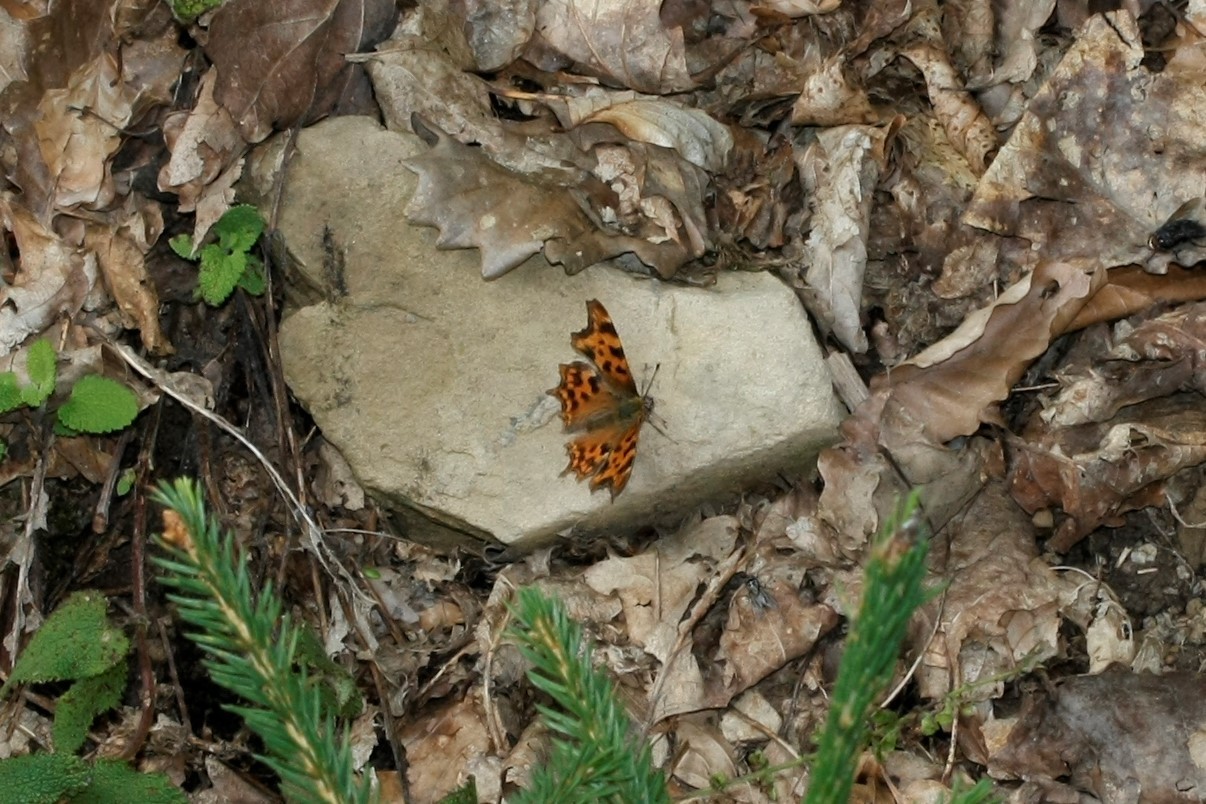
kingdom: Animalia
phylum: Arthropoda
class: Insecta
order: Lepidoptera
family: Nymphalidae
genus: Polygonia
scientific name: Polygonia c-album
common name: Comma
